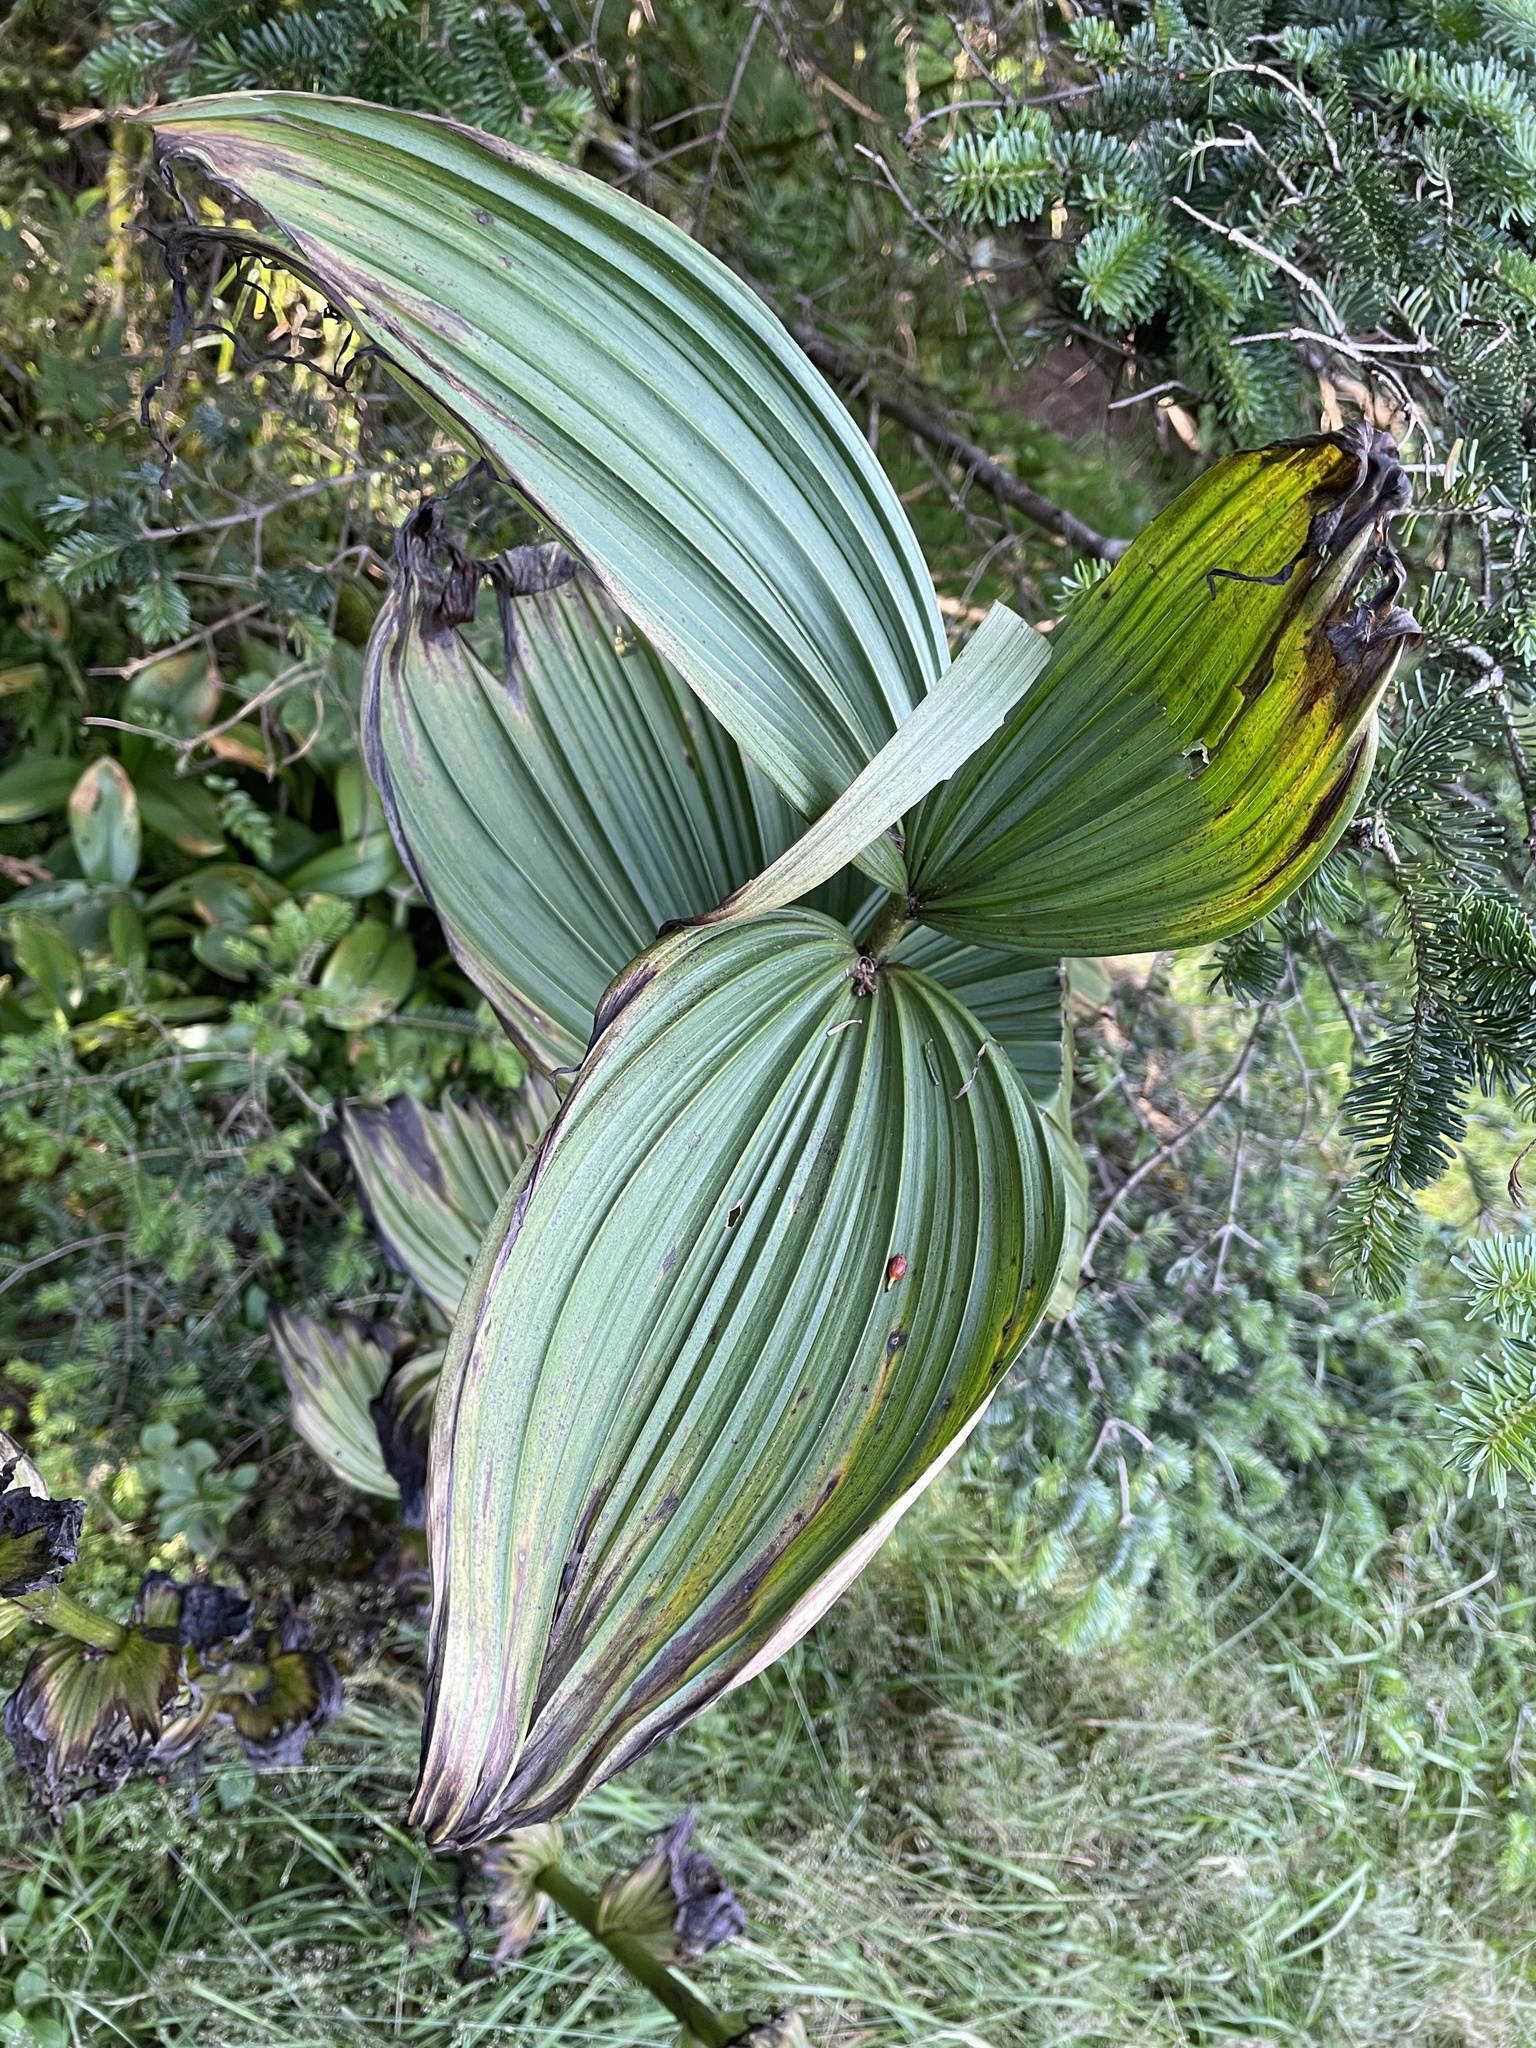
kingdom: Plantae
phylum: Tracheophyta
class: Liliopsida
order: Liliales
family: Melanthiaceae
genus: Veratrum
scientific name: Veratrum viride
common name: American false hellebore
